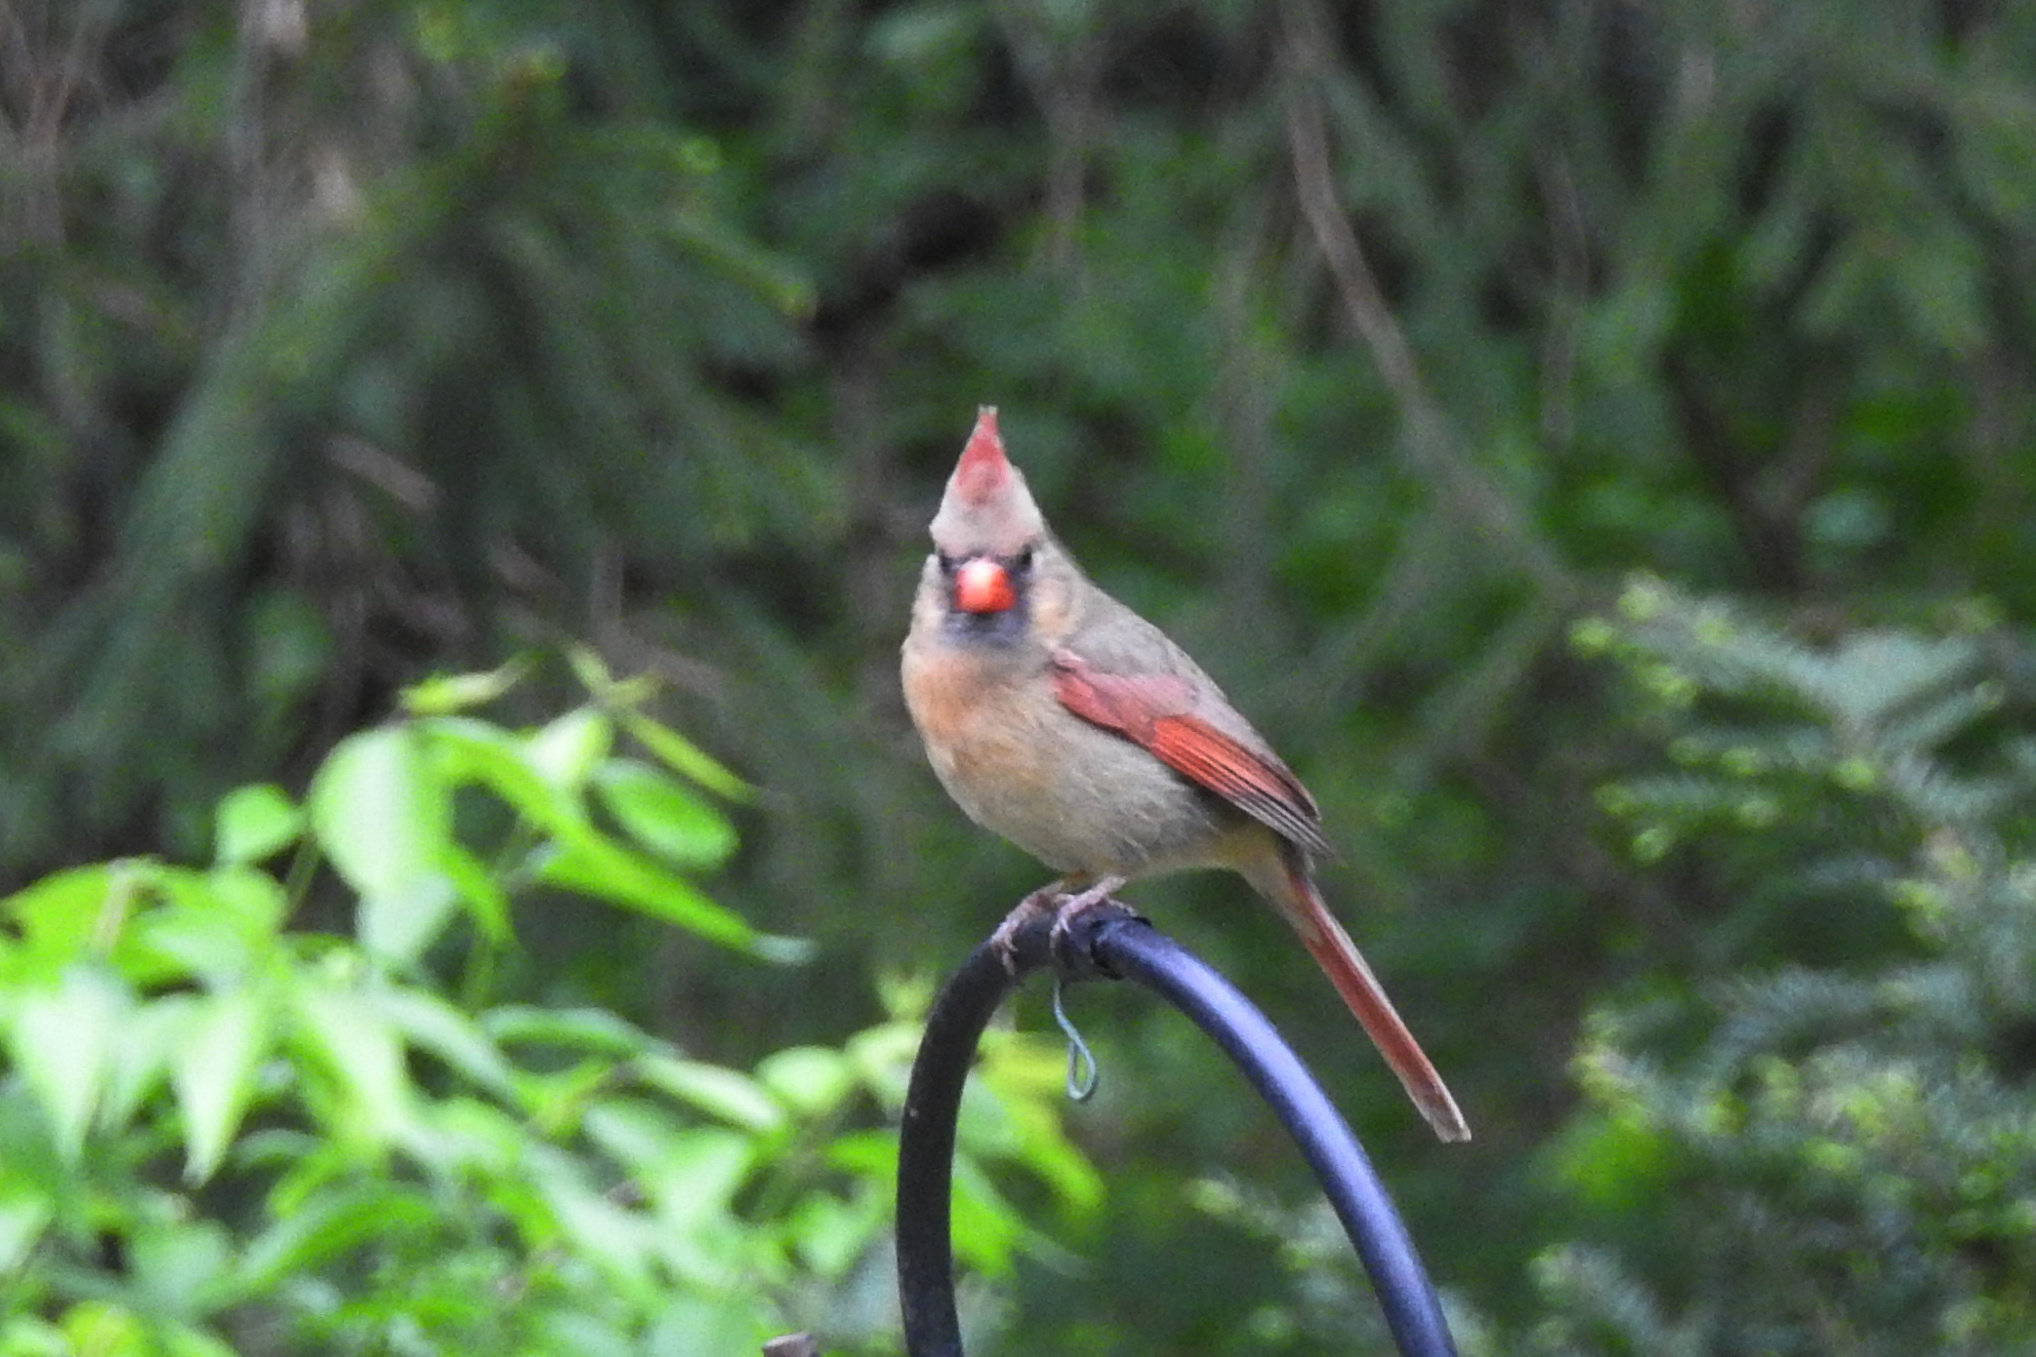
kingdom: Animalia
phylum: Chordata
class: Aves
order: Passeriformes
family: Cardinalidae
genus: Cardinalis
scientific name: Cardinalis cardinalis
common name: Northern cardinal
